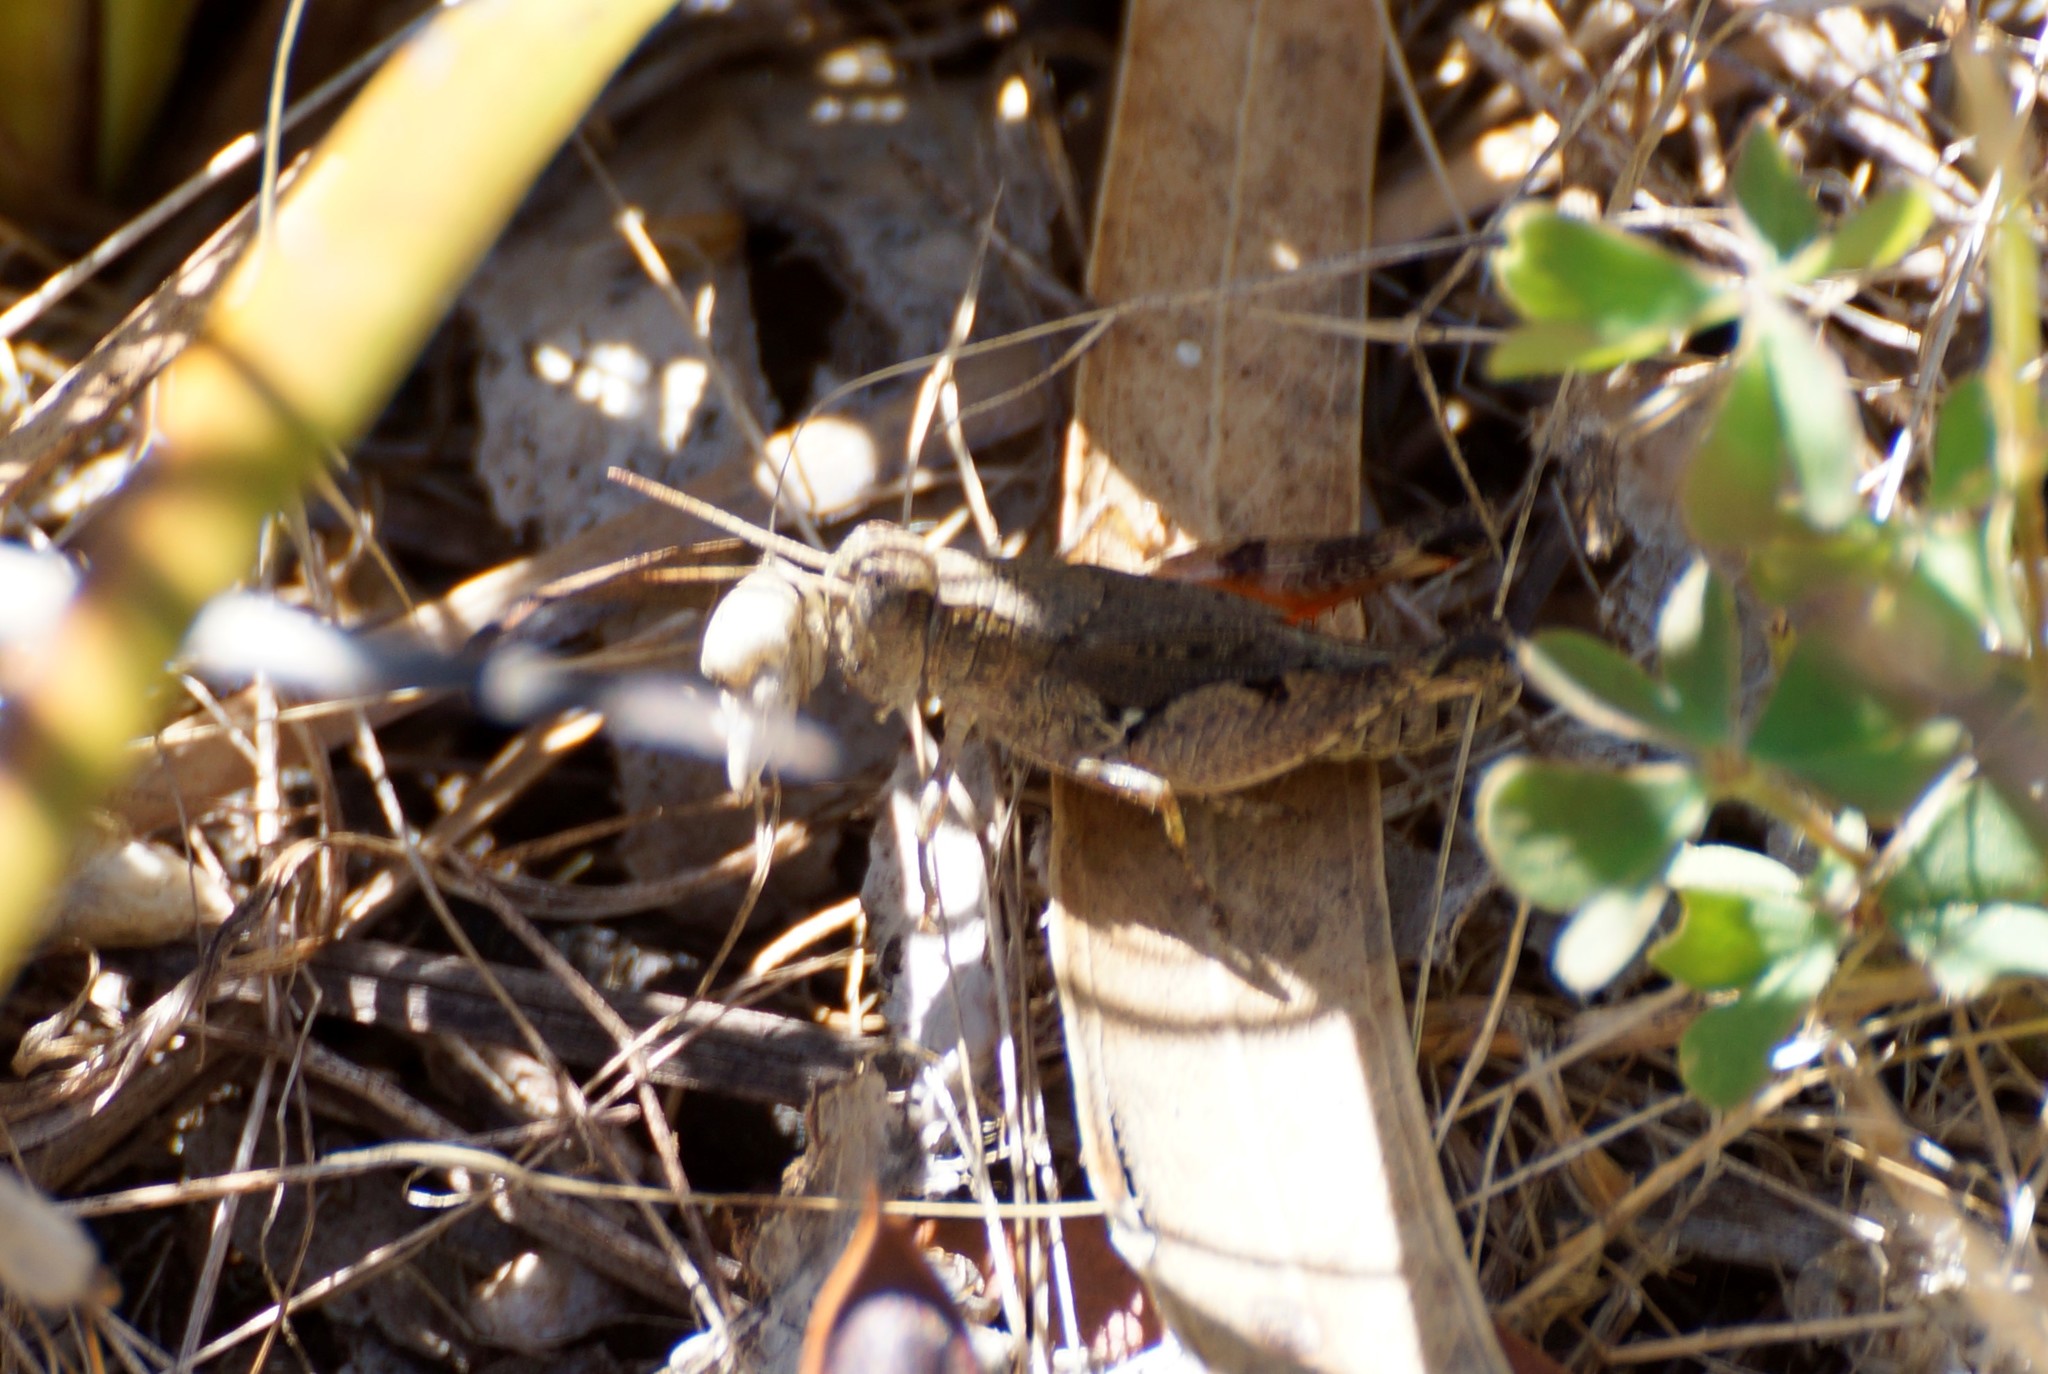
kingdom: Animalia
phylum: Arthropoda
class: Insecta
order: Orthoptera
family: Acrididae
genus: Phaulacridium
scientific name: Phaulacridium vittatum
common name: Wingless grasshopper
